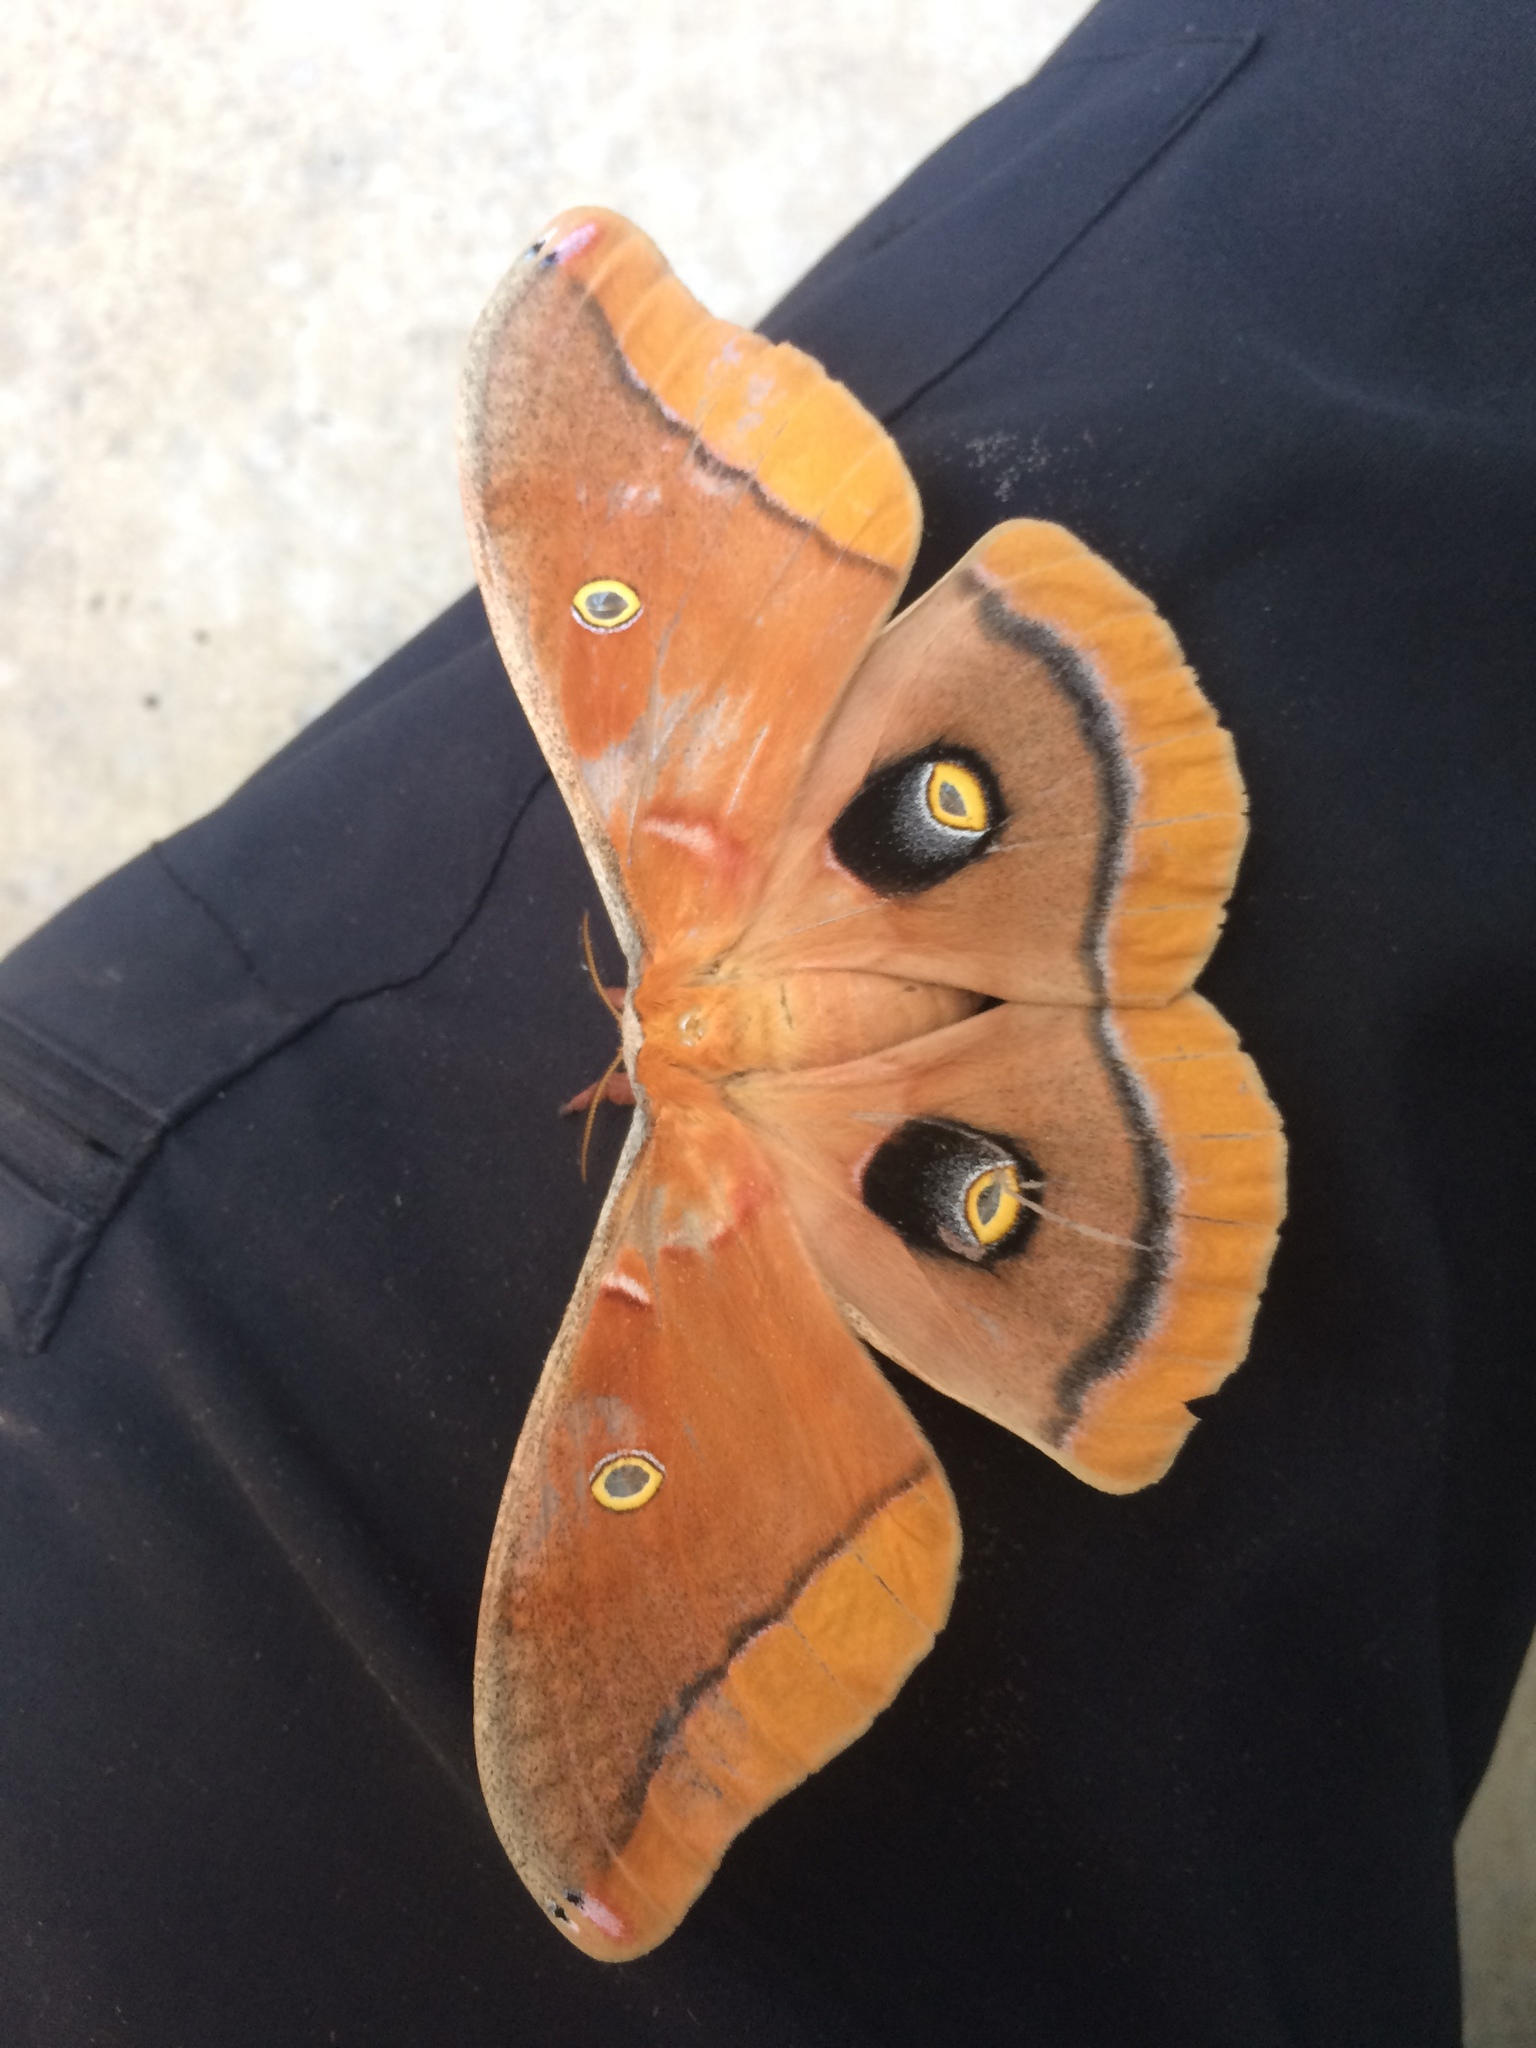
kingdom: Animalia
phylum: Arthropoda
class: Insecta
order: Lepidoptera
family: Saturniidae
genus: Antheraea
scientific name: Antheraea polyphemus
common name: Polyphemus moth
